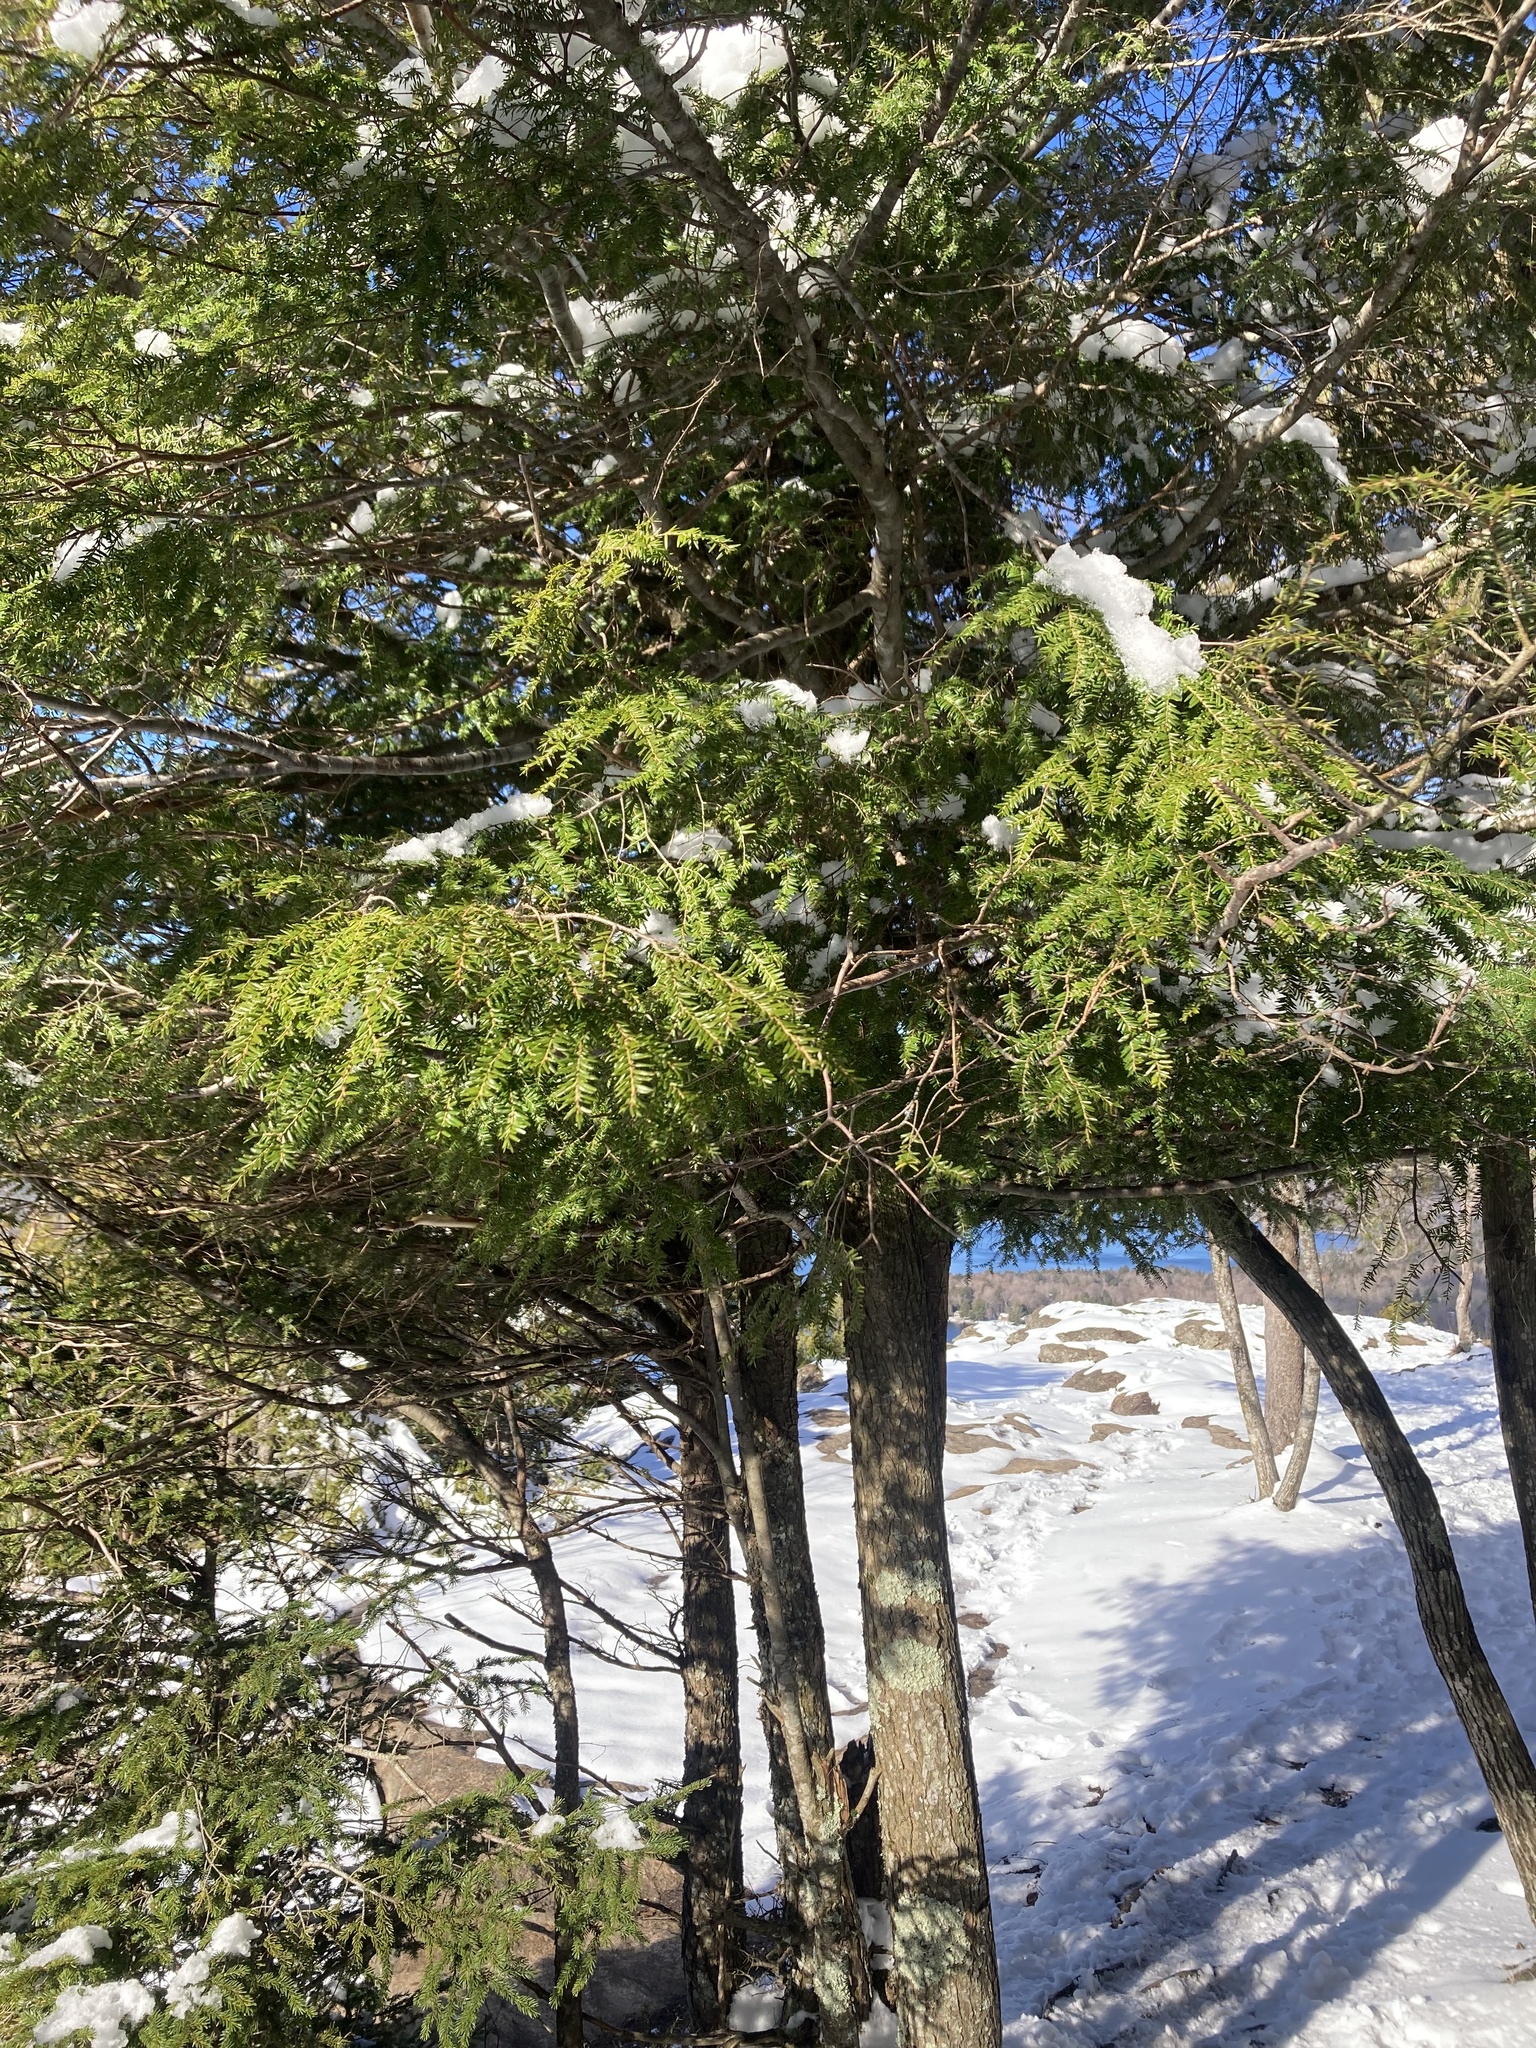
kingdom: Plantae
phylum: Tracheophyta
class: Pinopsida
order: Pinales
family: Pinaceae
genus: Tsuga
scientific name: Tsuga canadensis
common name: Eastern hemlock
